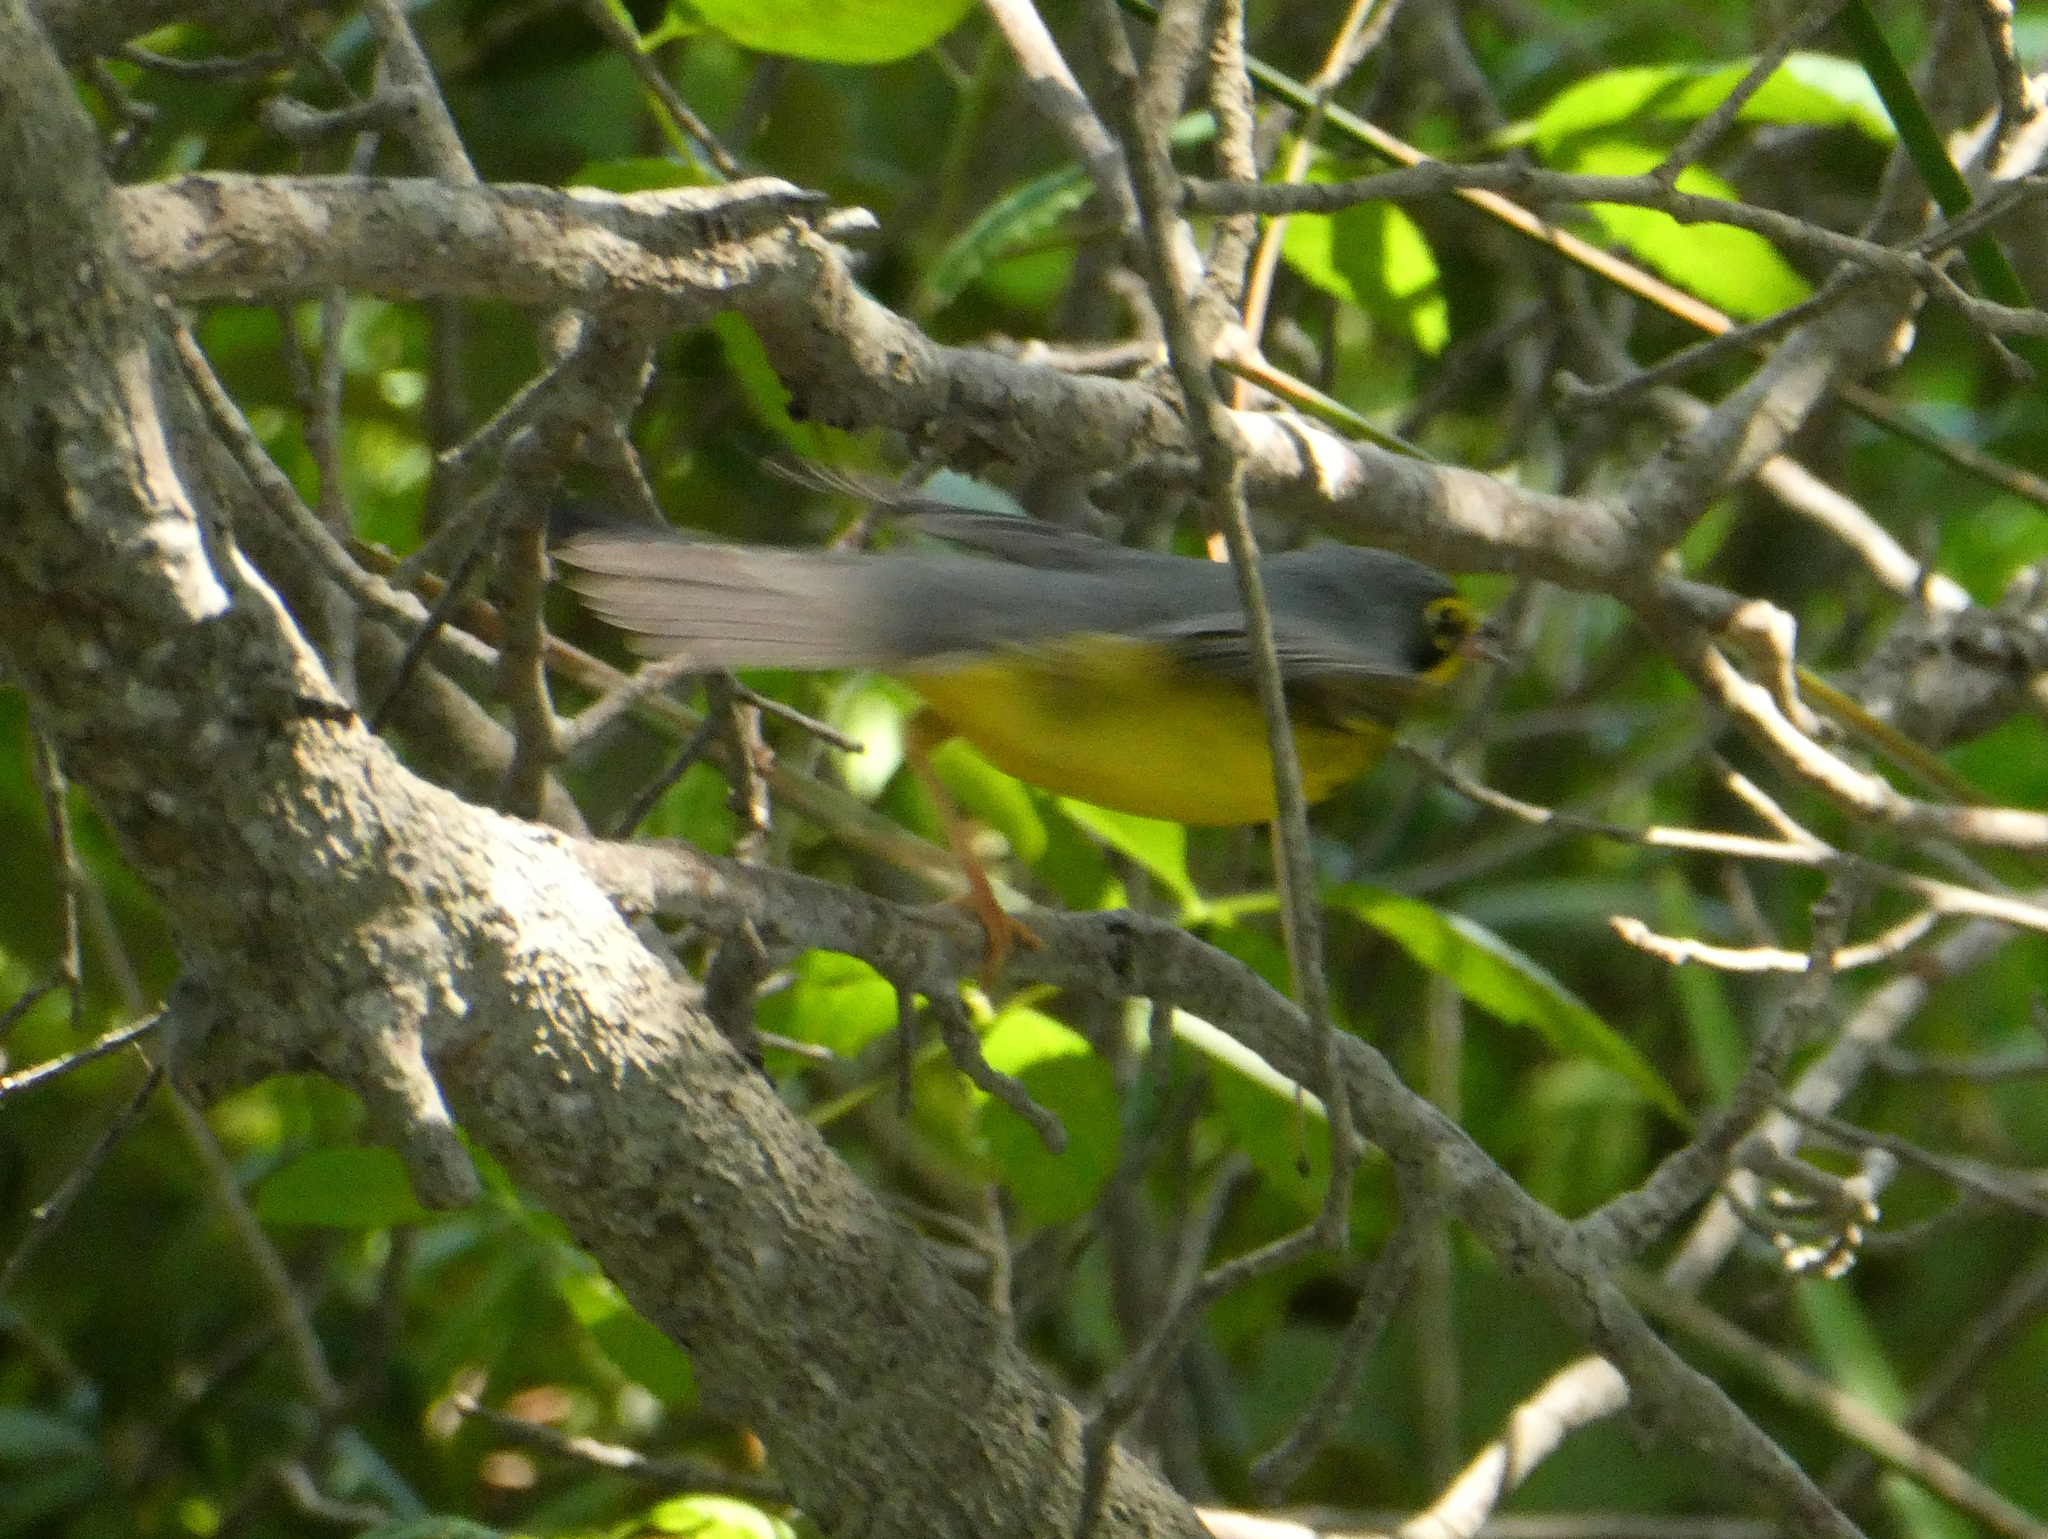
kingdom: Animalia
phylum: Chordata
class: Aves
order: Passeriformes
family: Parulidae
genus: Cardellina
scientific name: Cardellina canadensis
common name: Canada warbler
